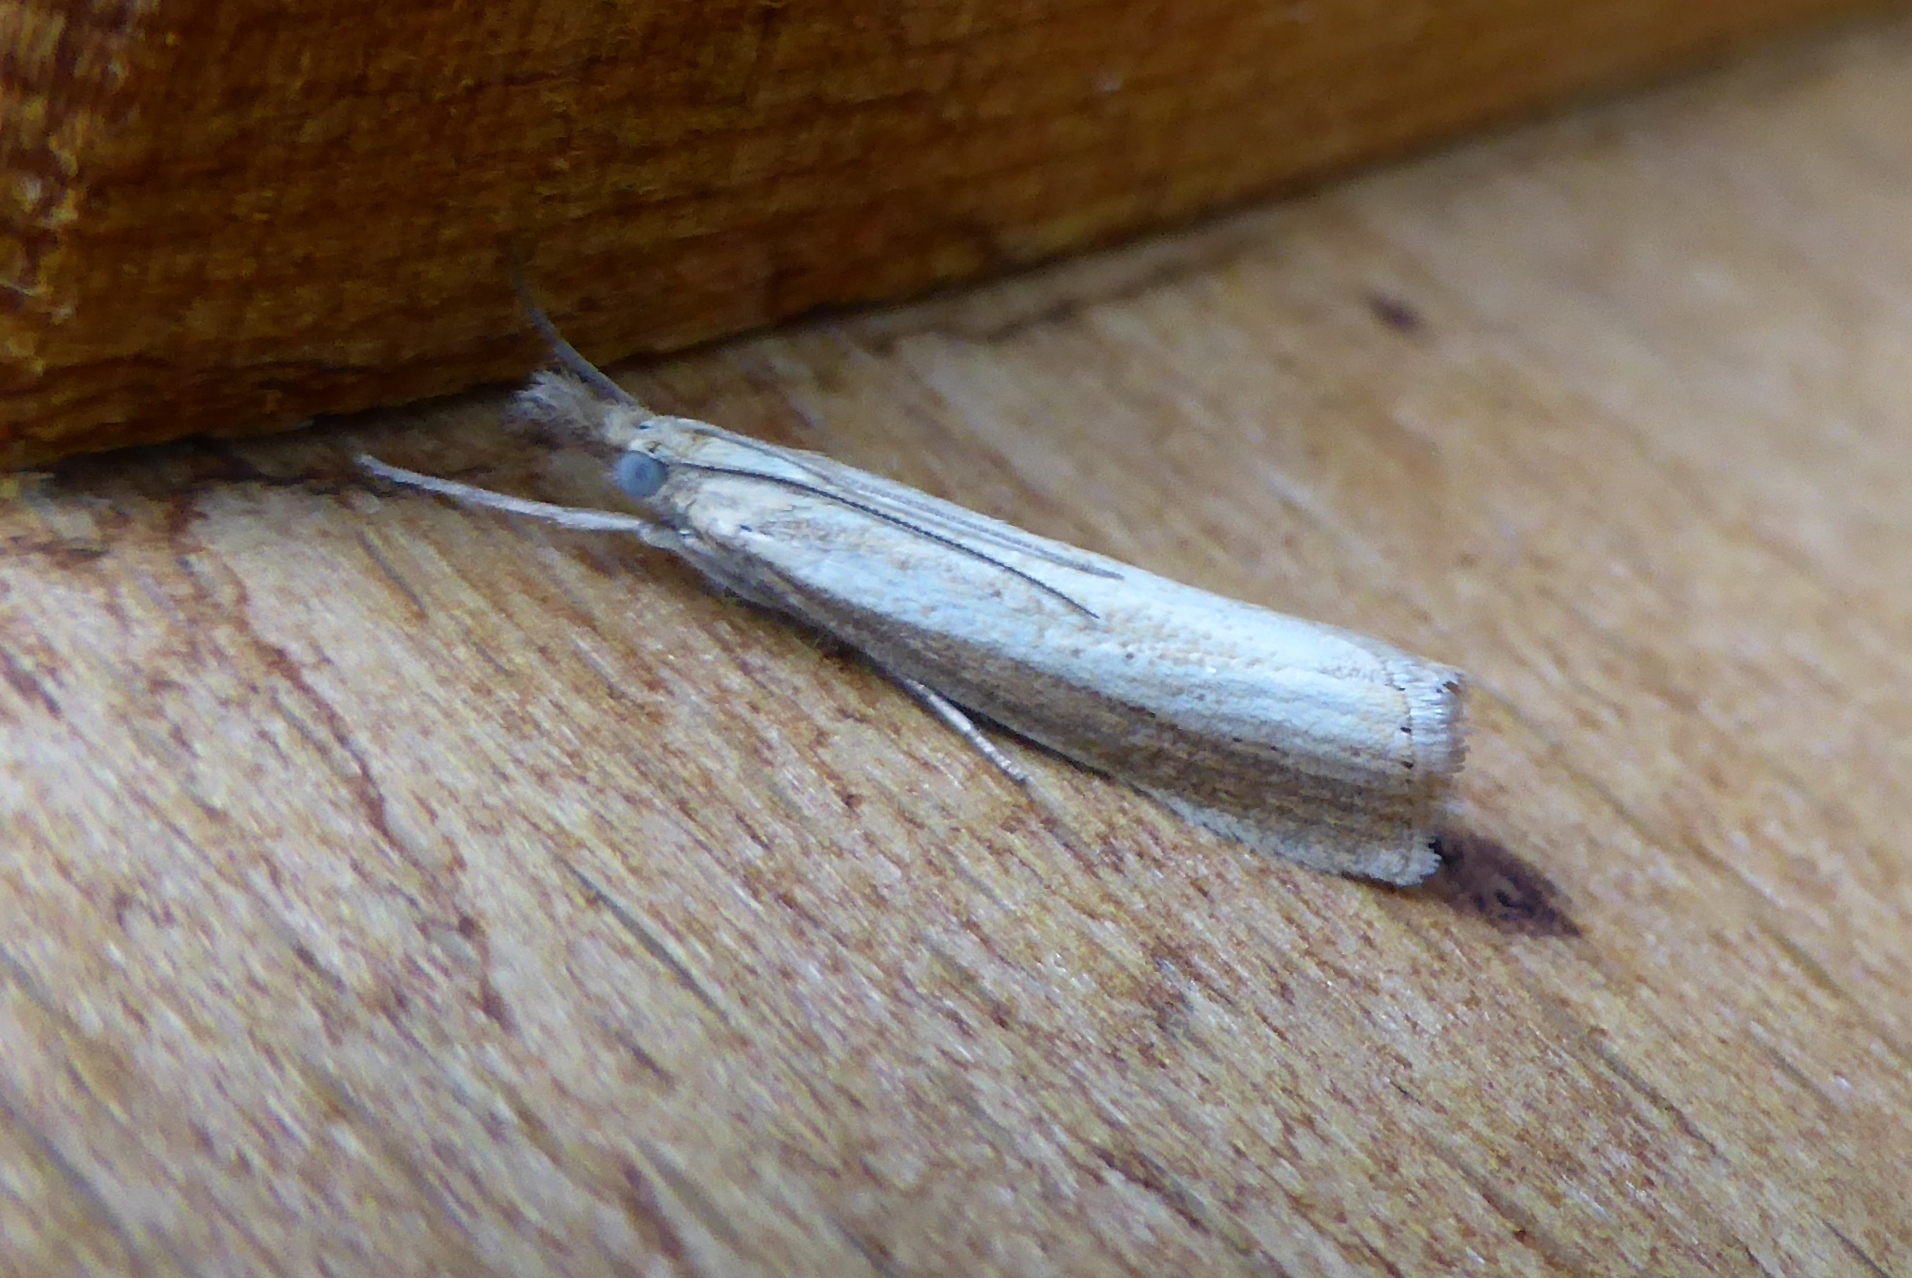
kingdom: Animalia
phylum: Arthropoda
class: Insecta
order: Lepidoptera
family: Crambidae
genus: Agriphila
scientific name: Agriphila straminella
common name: Straw grass-veneer
